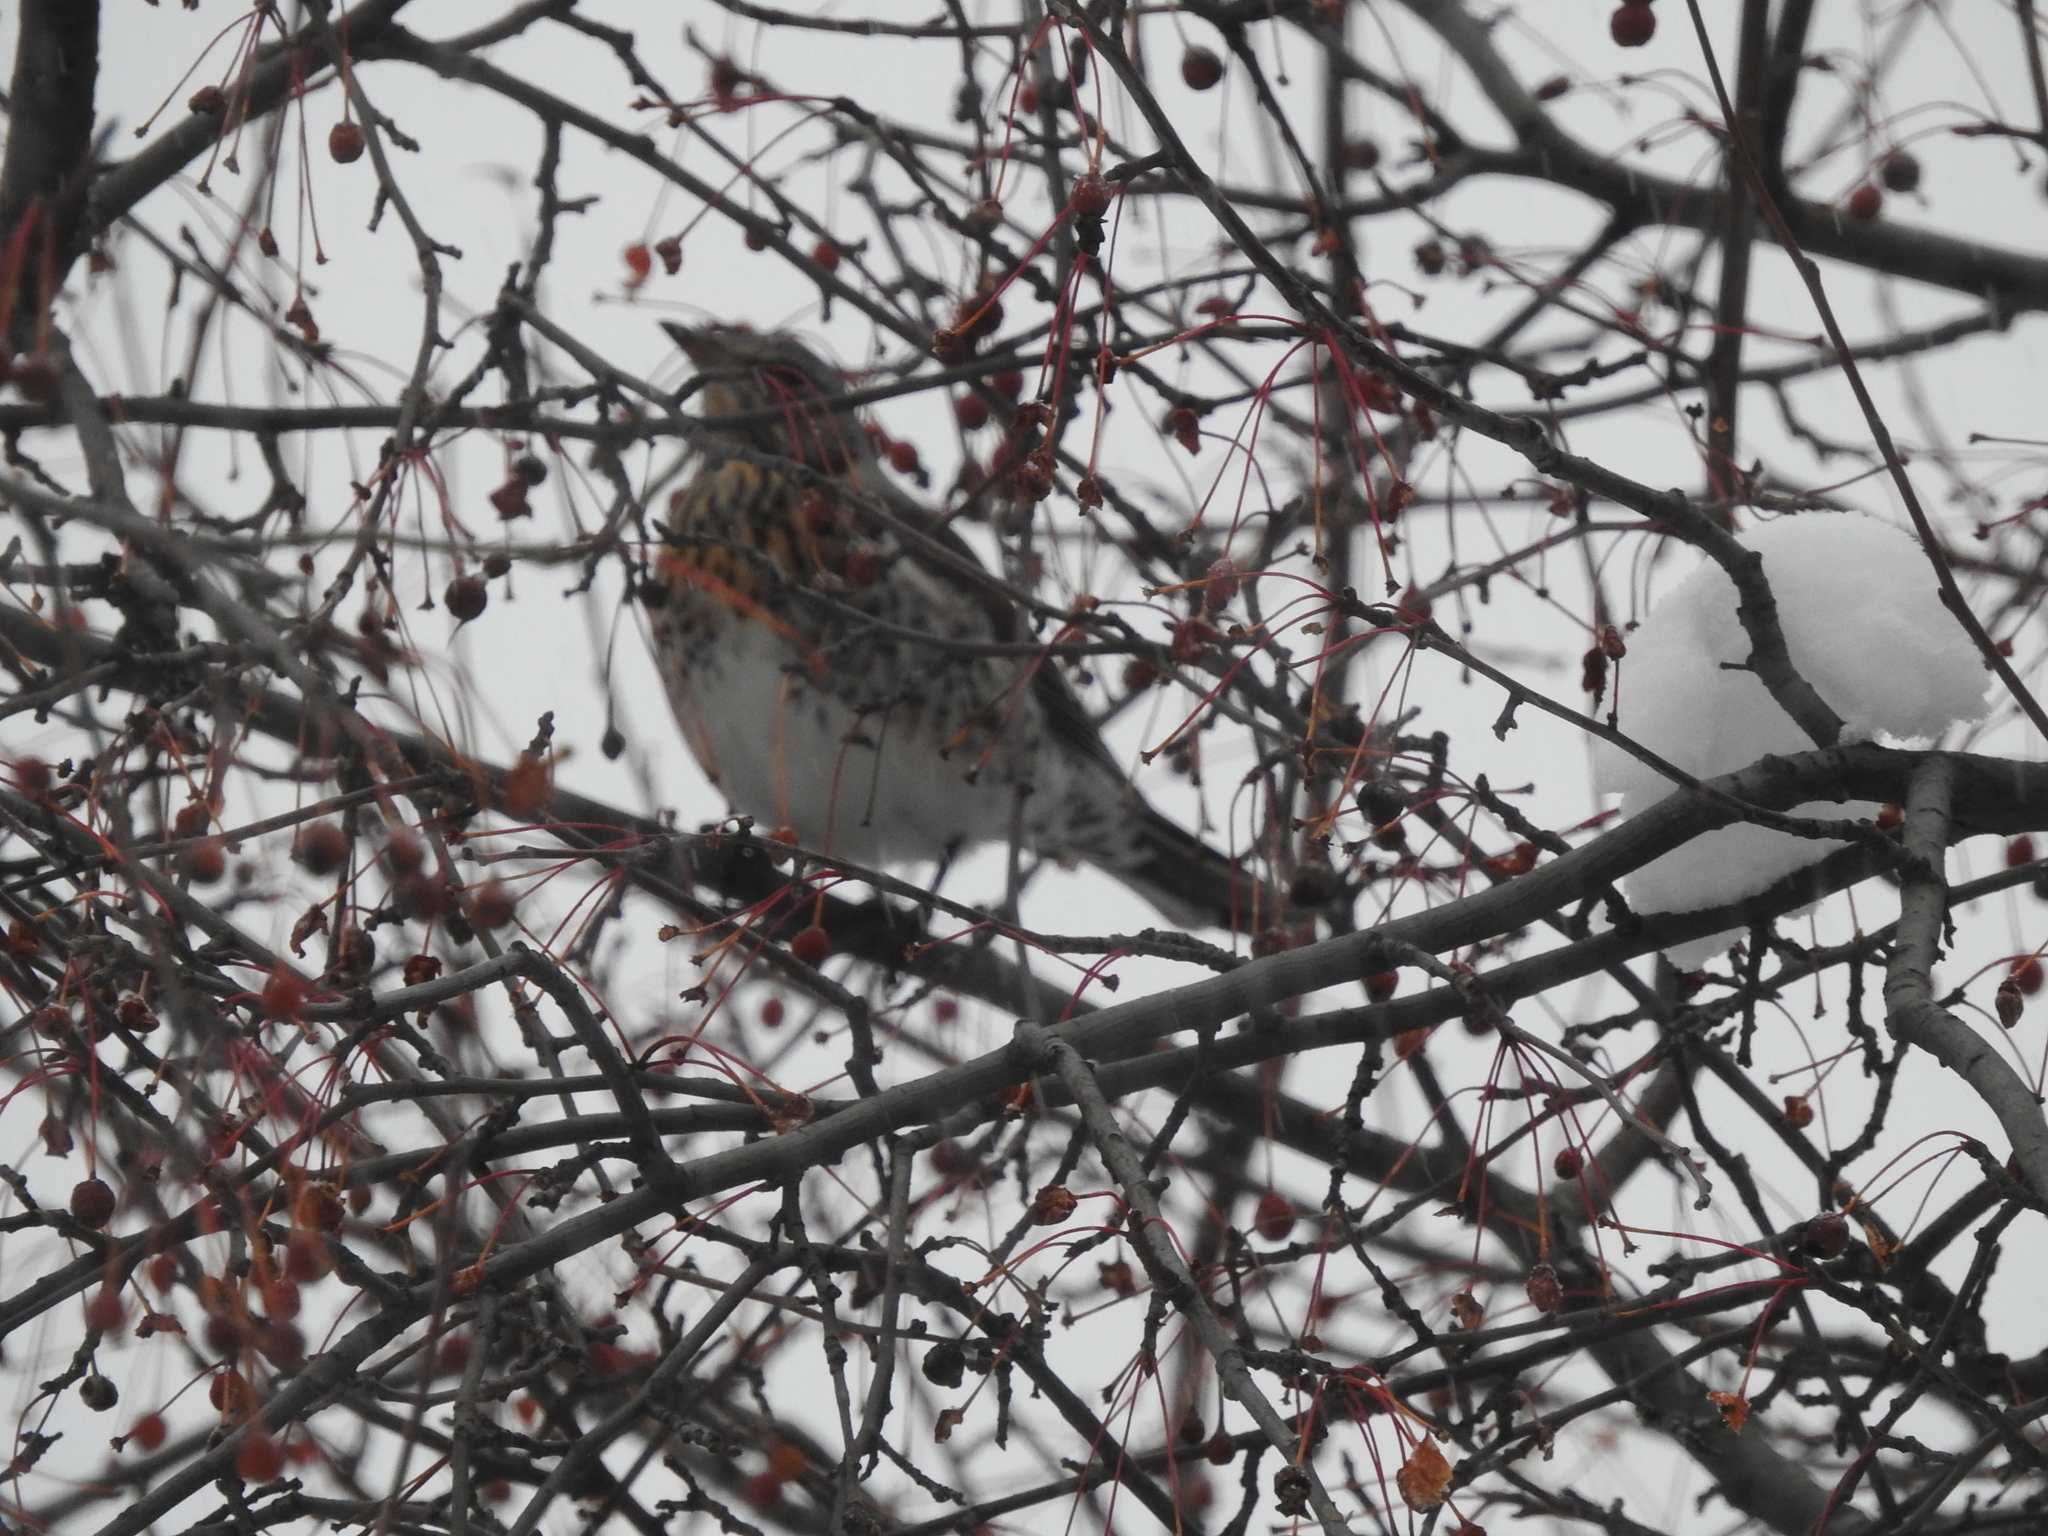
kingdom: Animalia
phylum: Chordata
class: Aves
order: Passeriformes
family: Turdidae
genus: Turdus
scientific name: Turdus pilaris
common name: Fieldfare
